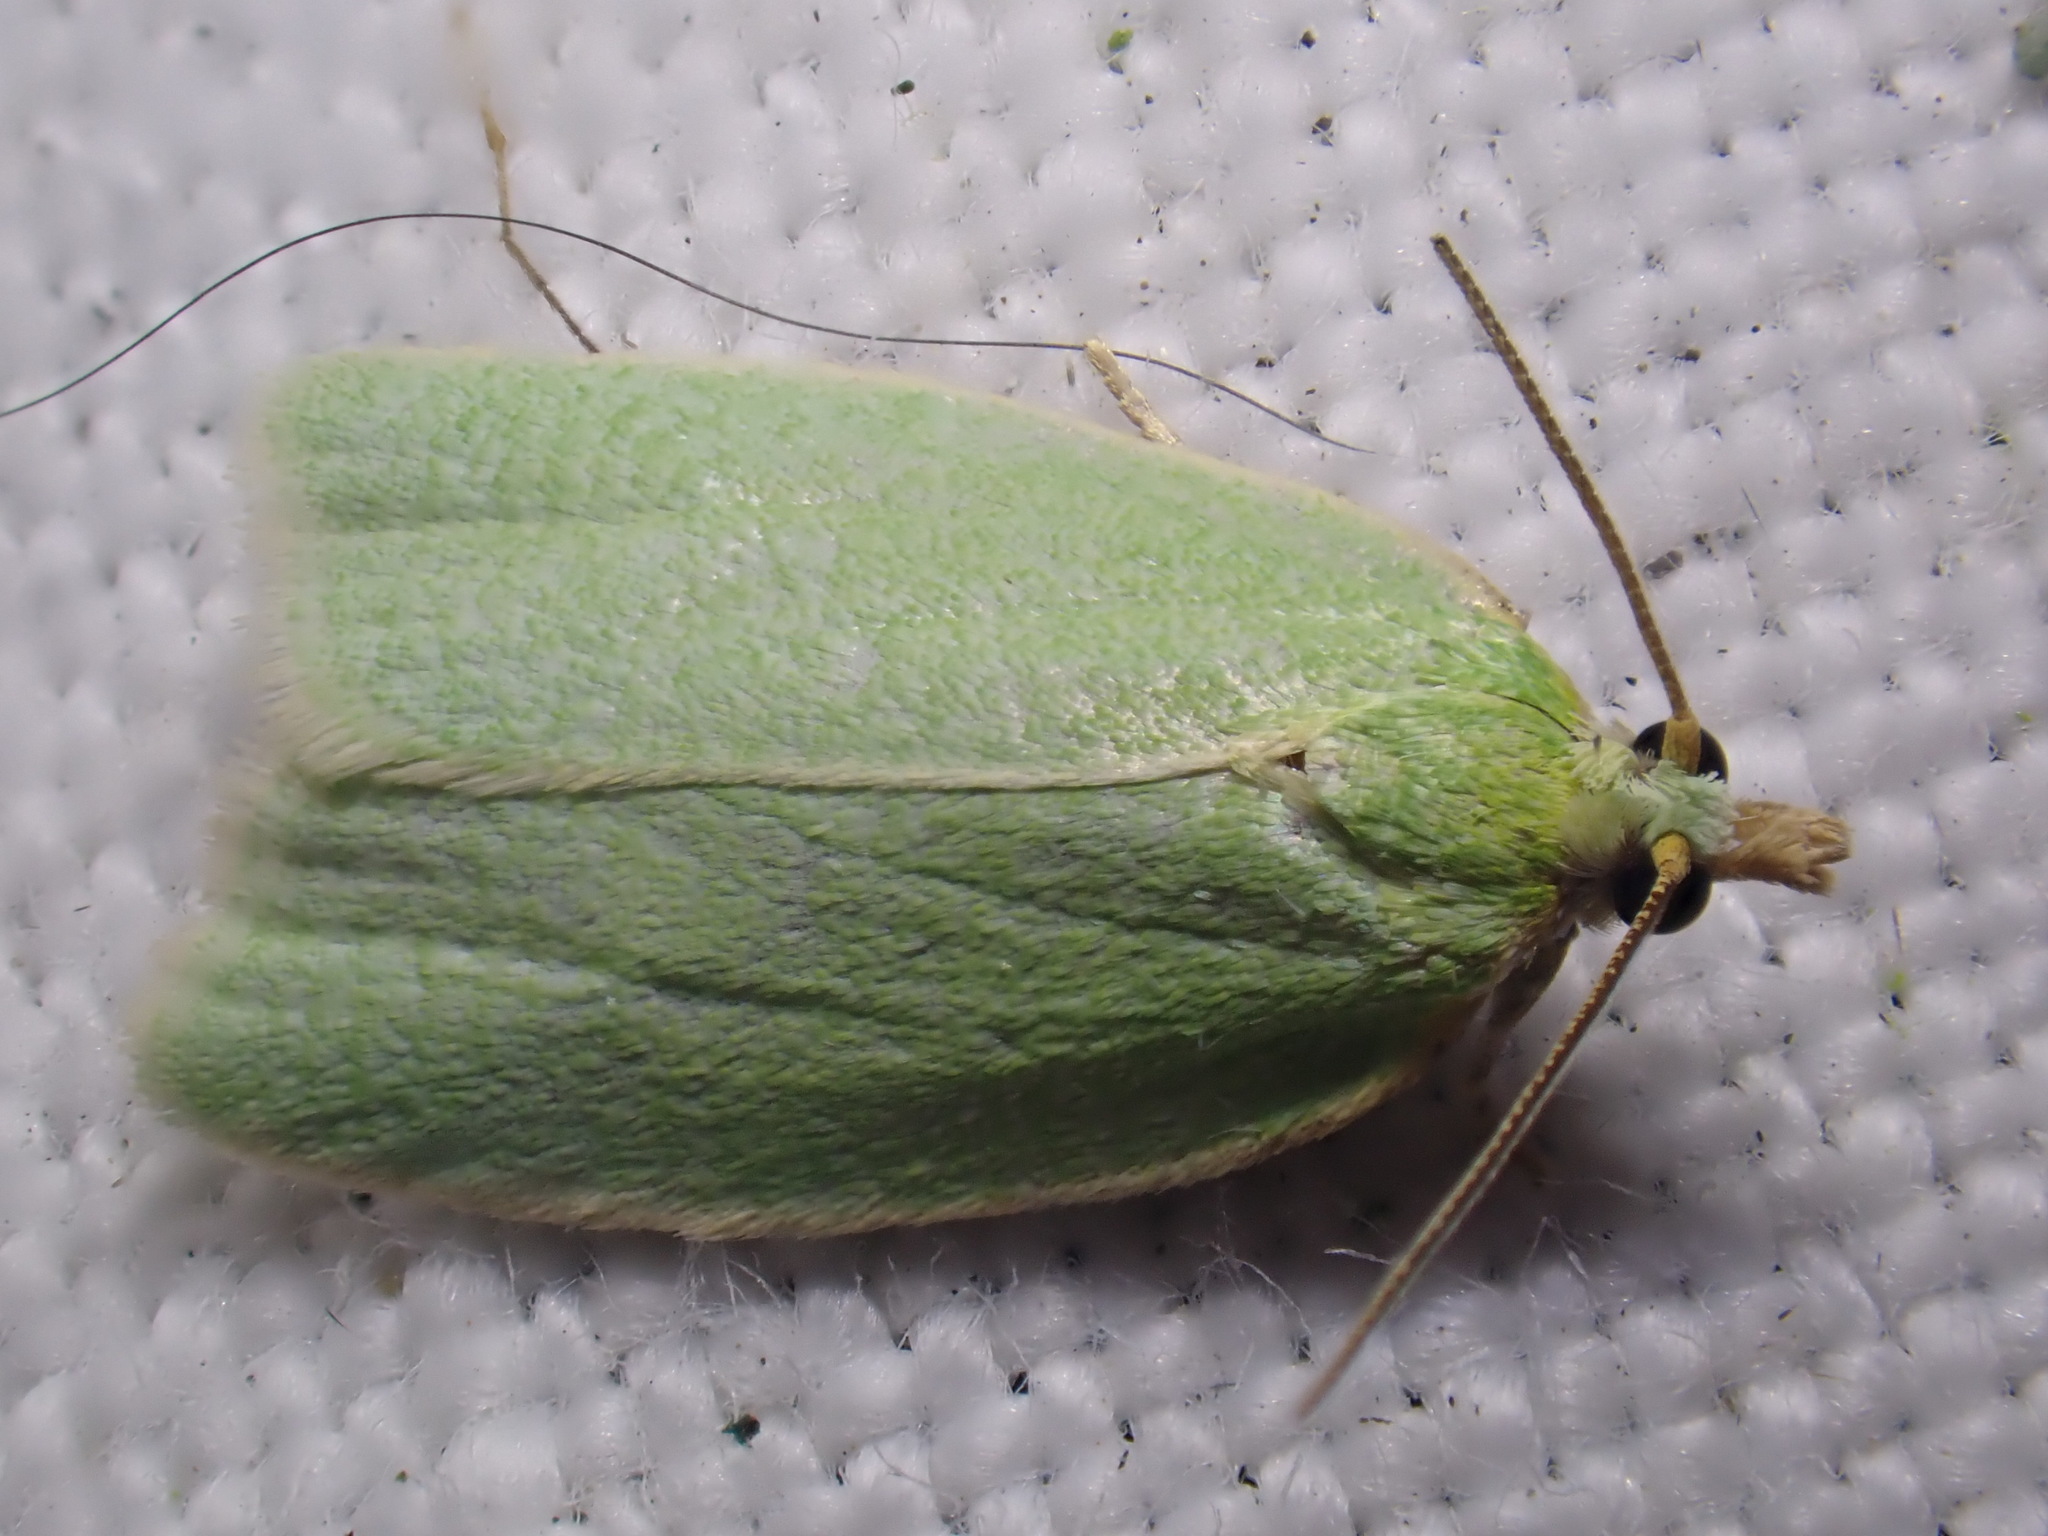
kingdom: Animalia
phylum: Arthropoda
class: Insecta
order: Lepidoptera
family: Tortricidae
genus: Tortrix
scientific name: Tortrix viridana
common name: Green oak tortrix
